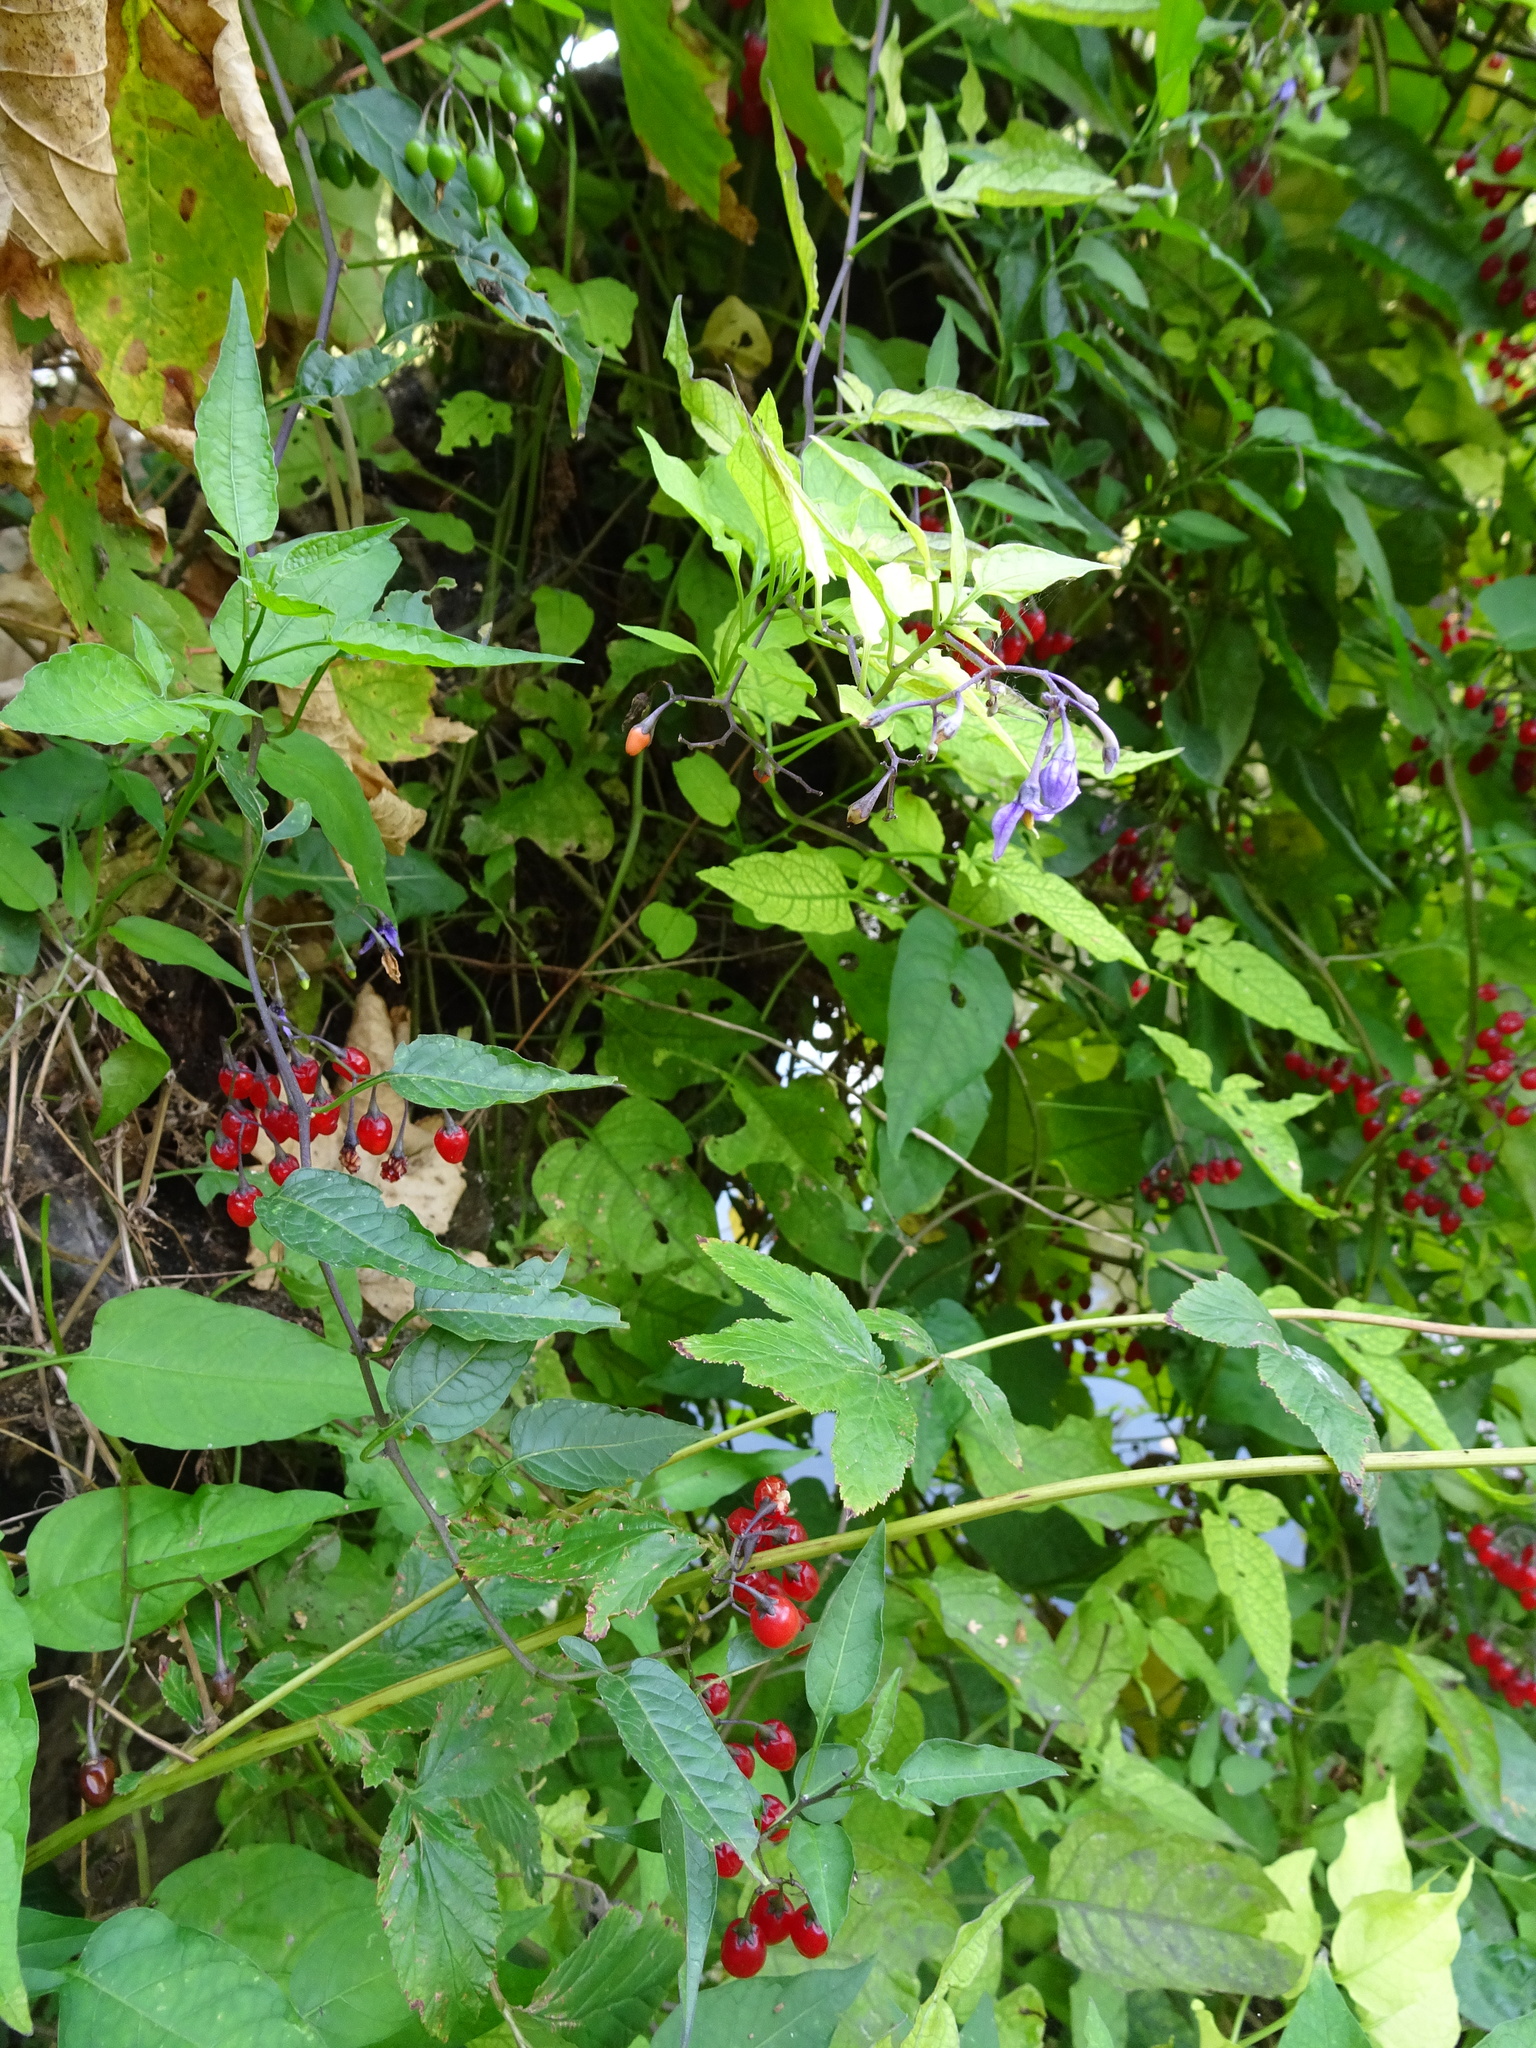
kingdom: Plantae
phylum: Tracheophyta
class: Magnoliopsida
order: Solanales
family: Solanaceae
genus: Solanum
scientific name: Solanum dulcamara
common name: Climbing nightshade
